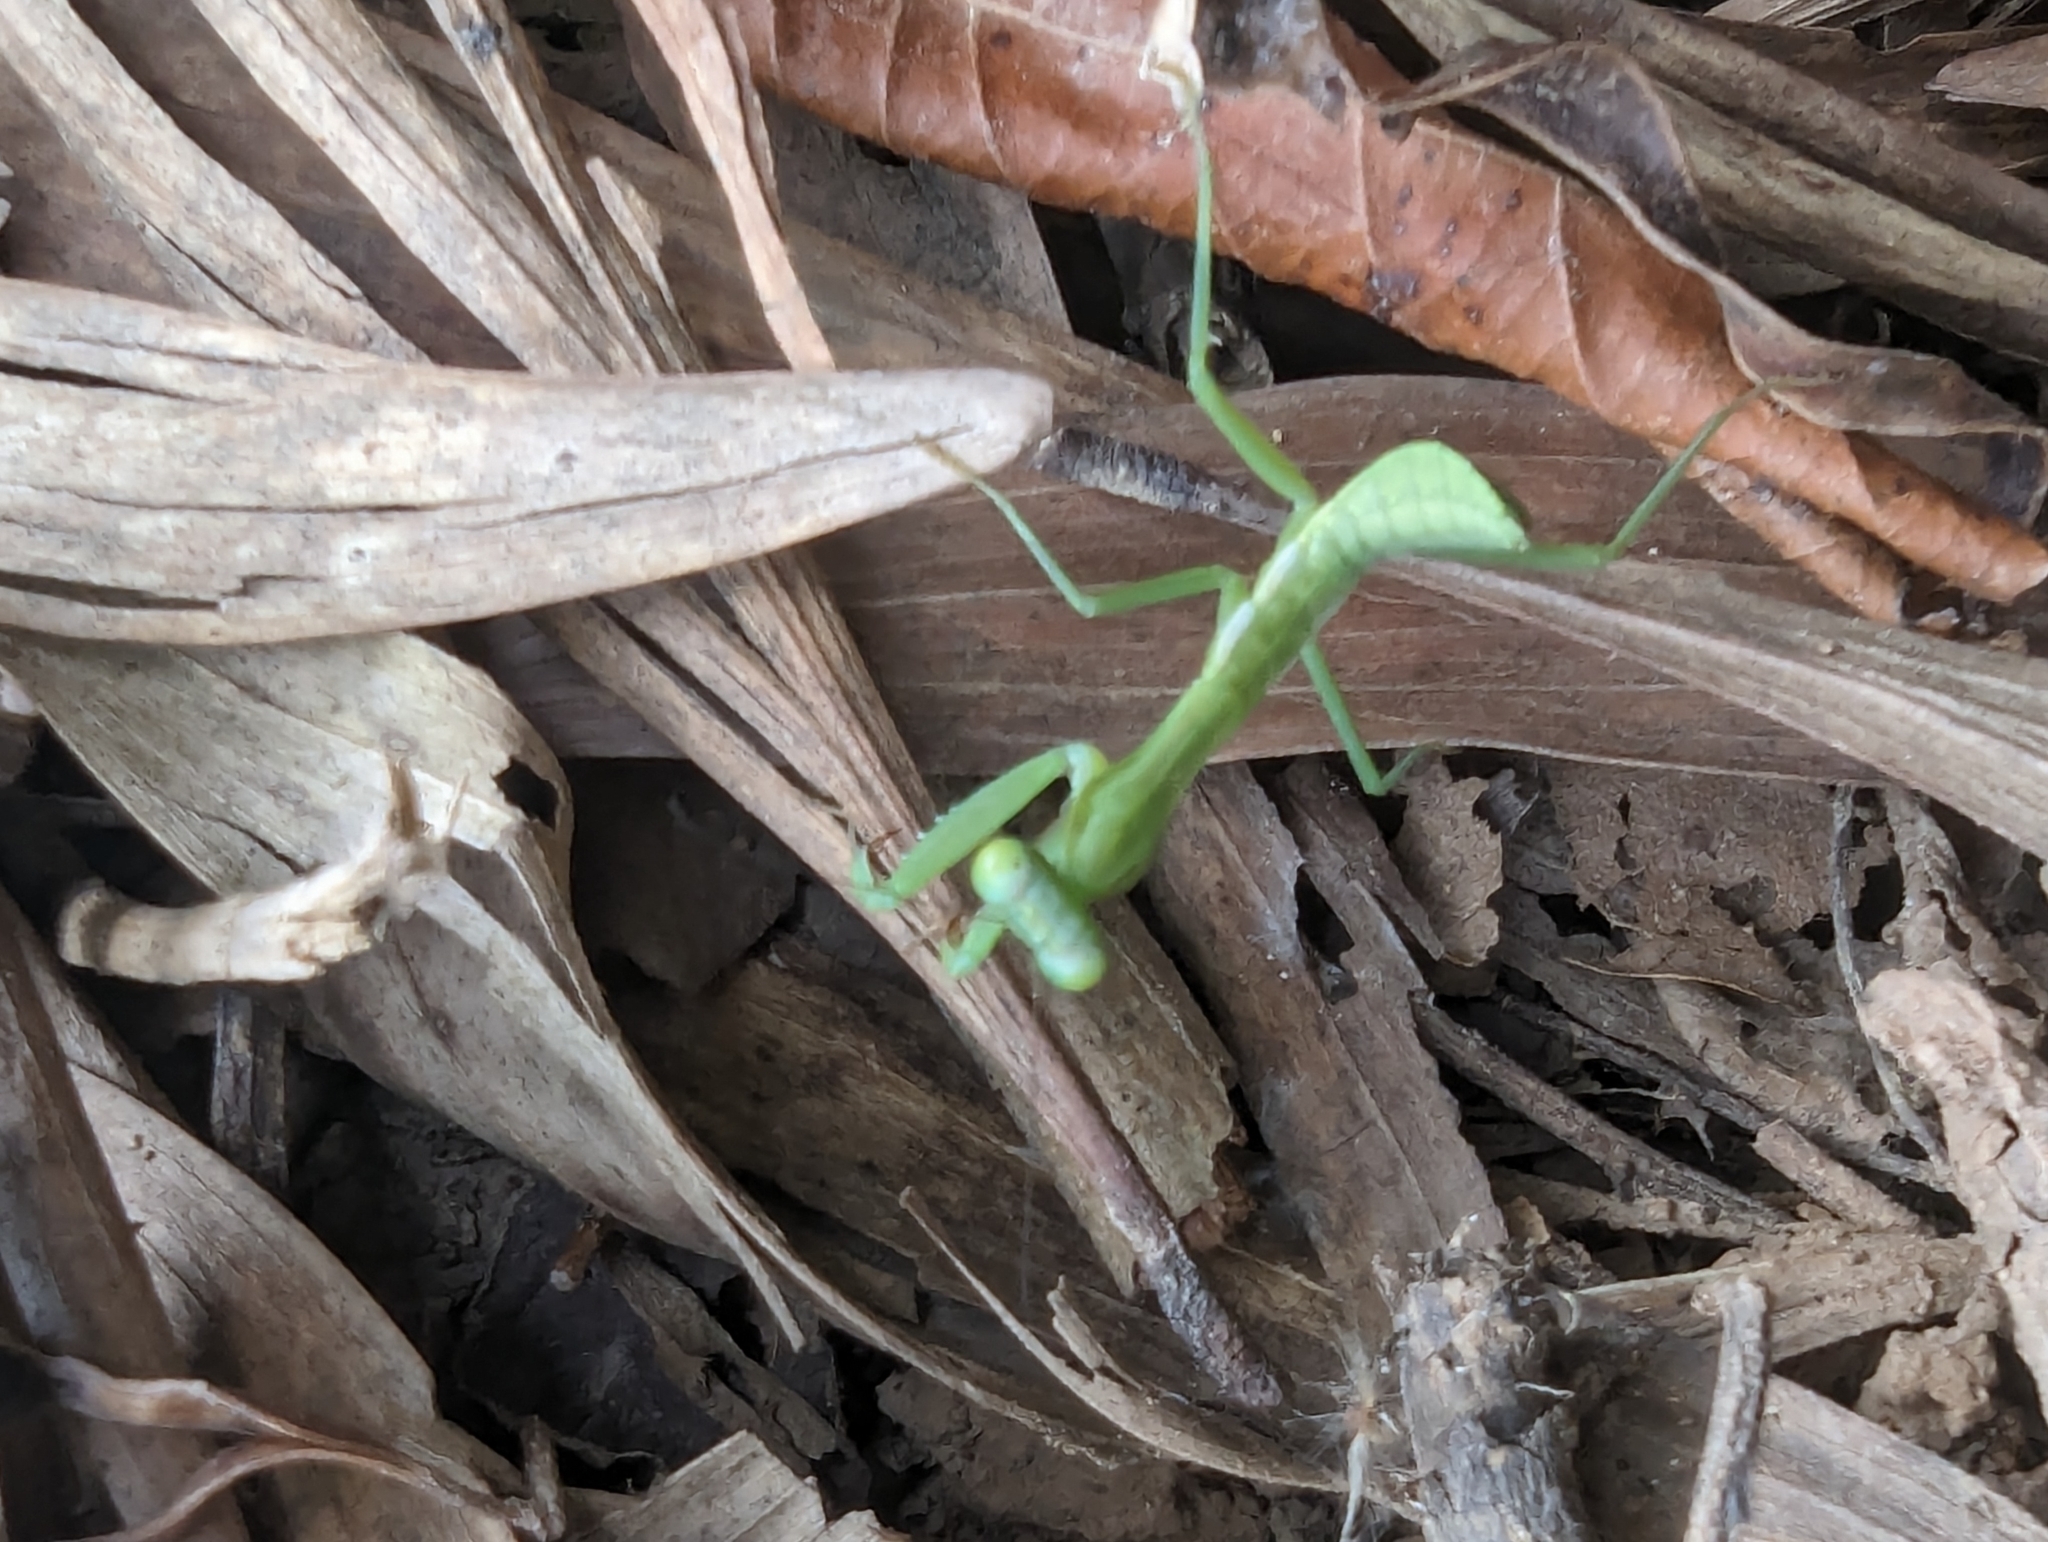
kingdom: Animalia
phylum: Arthropoda
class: Insecta
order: Mantodea
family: Mantidae
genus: Hierodula
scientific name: Hierodula majuscula
